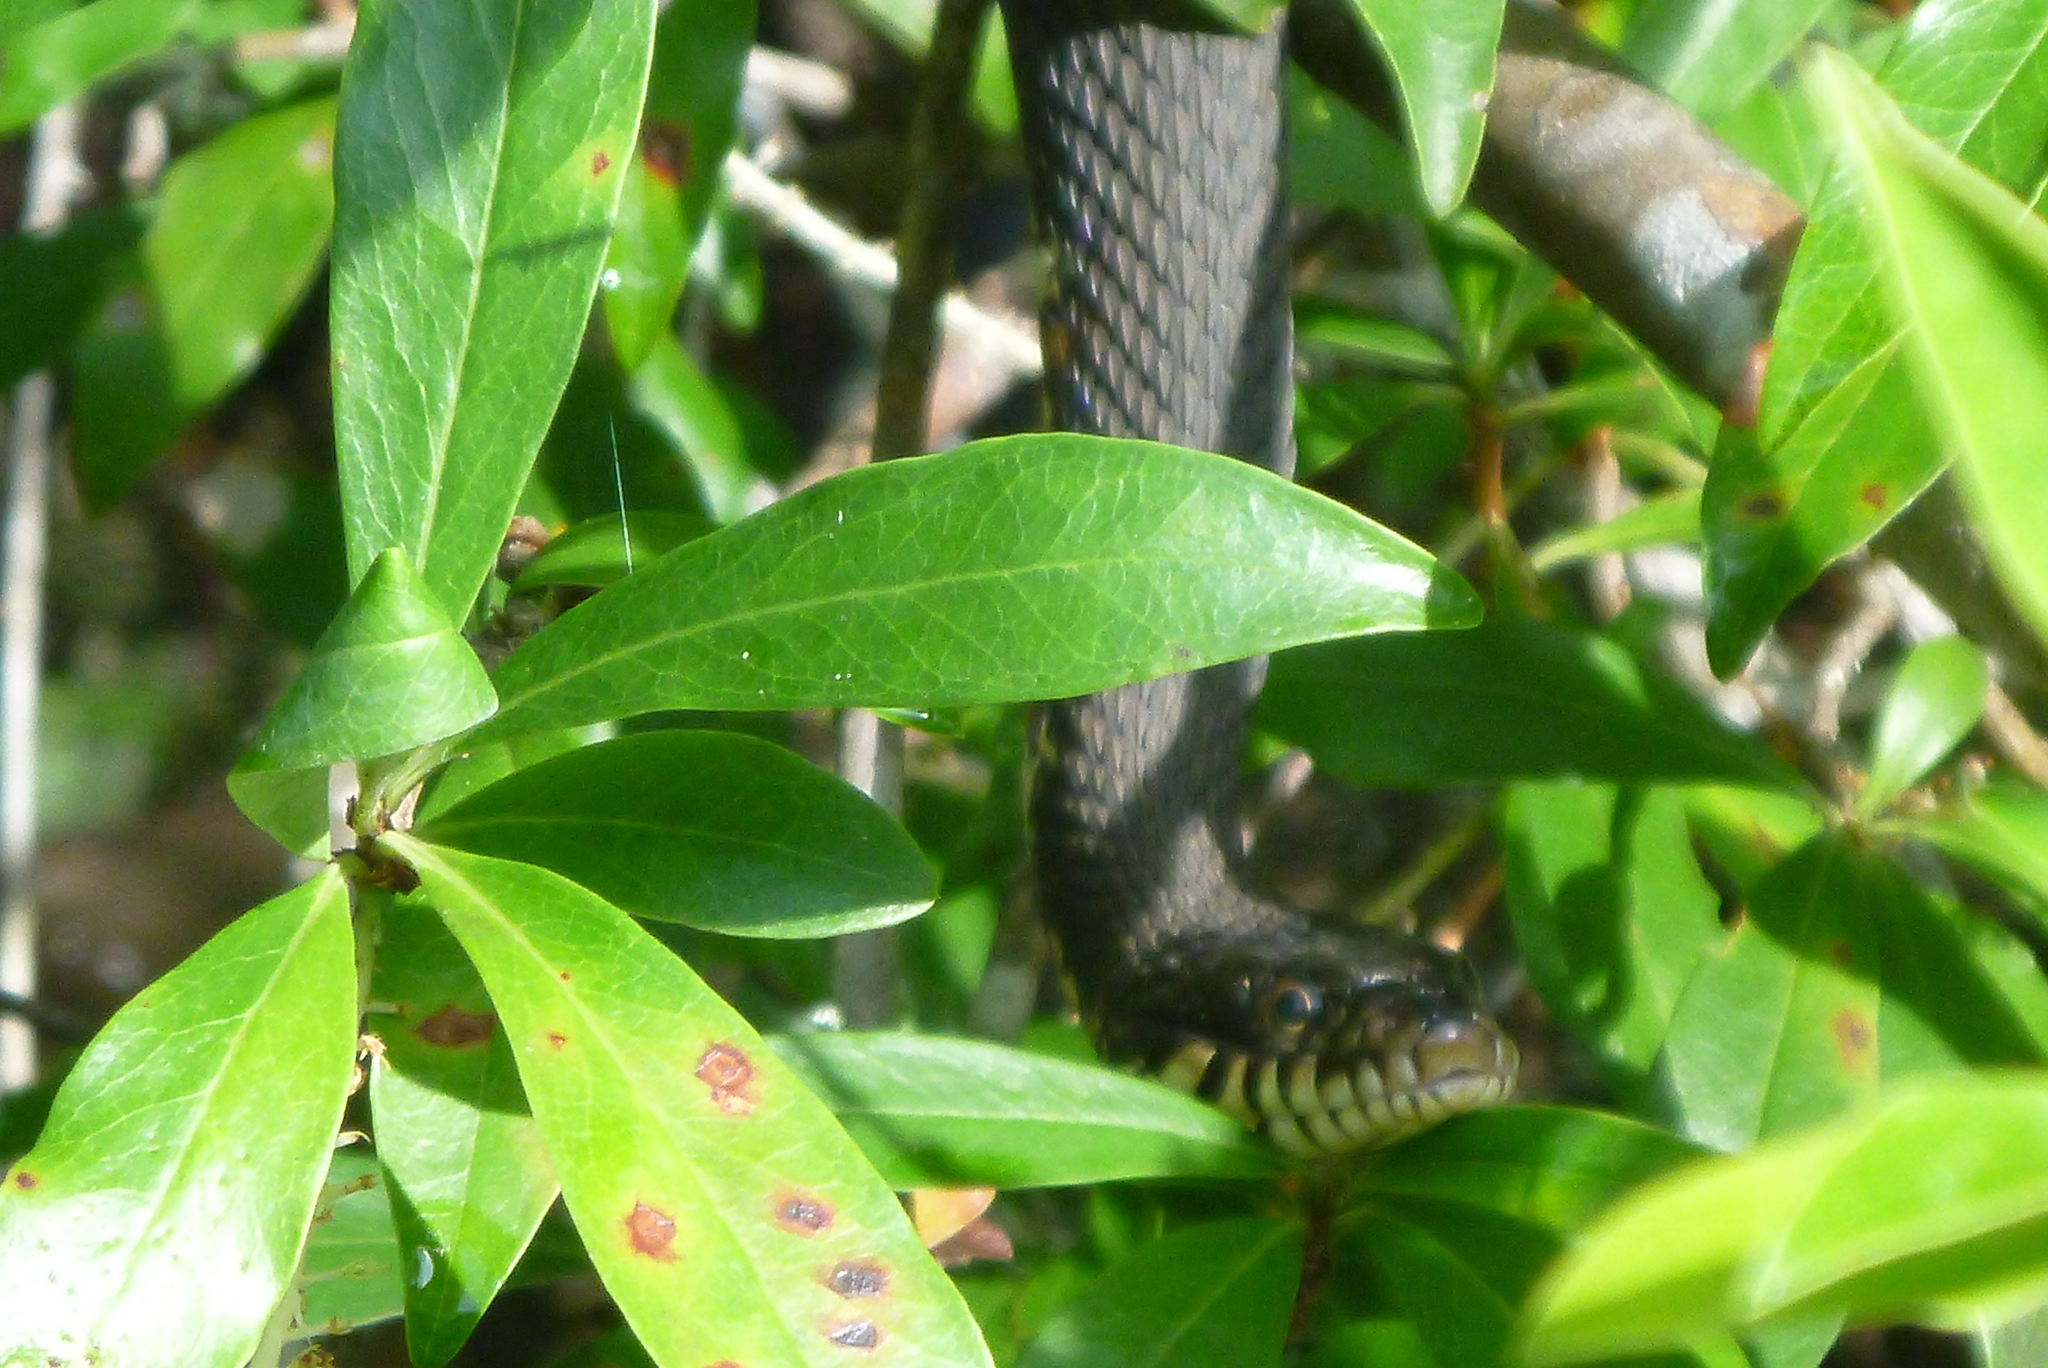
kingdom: Animalia
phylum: Chordata
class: Squamata
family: Colubridae
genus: Nerodia
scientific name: Nerodia fasciata
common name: Southern water snake
